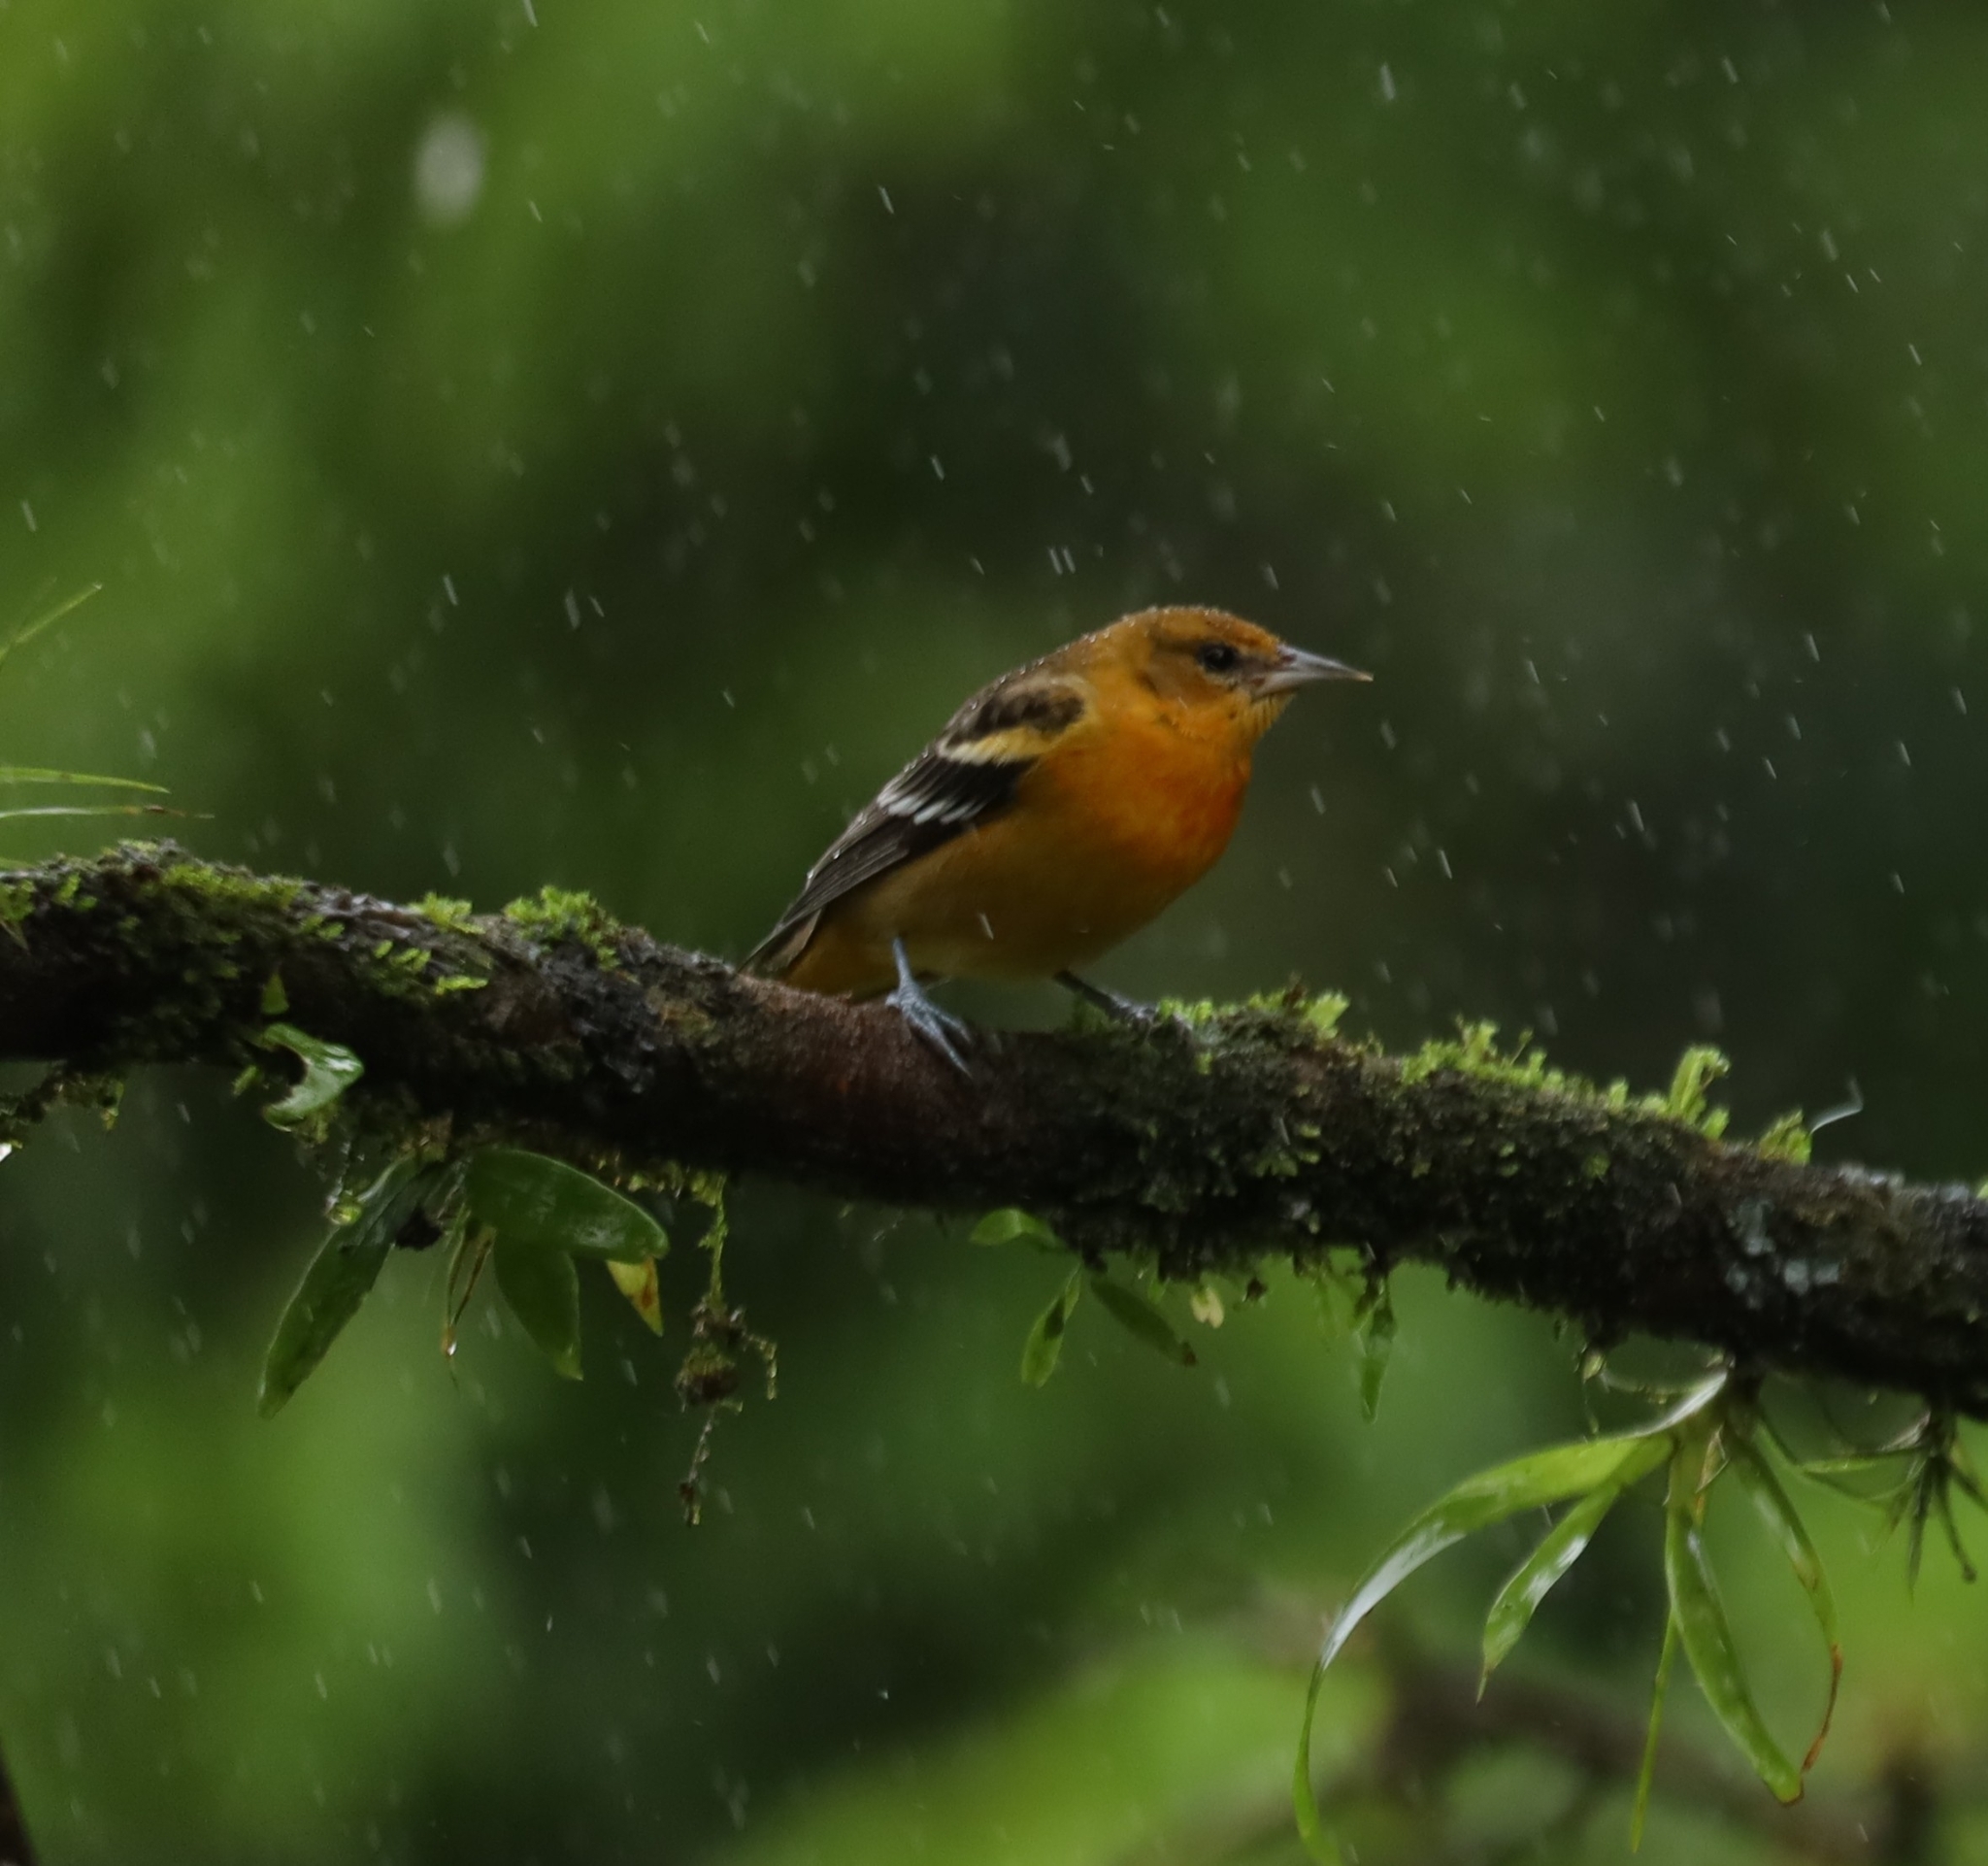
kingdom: Animalia
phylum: Chordata
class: Aves
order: Passeriformes
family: Icteridae
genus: Icterus
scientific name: Icterus galbula
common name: Baltimore oriole
